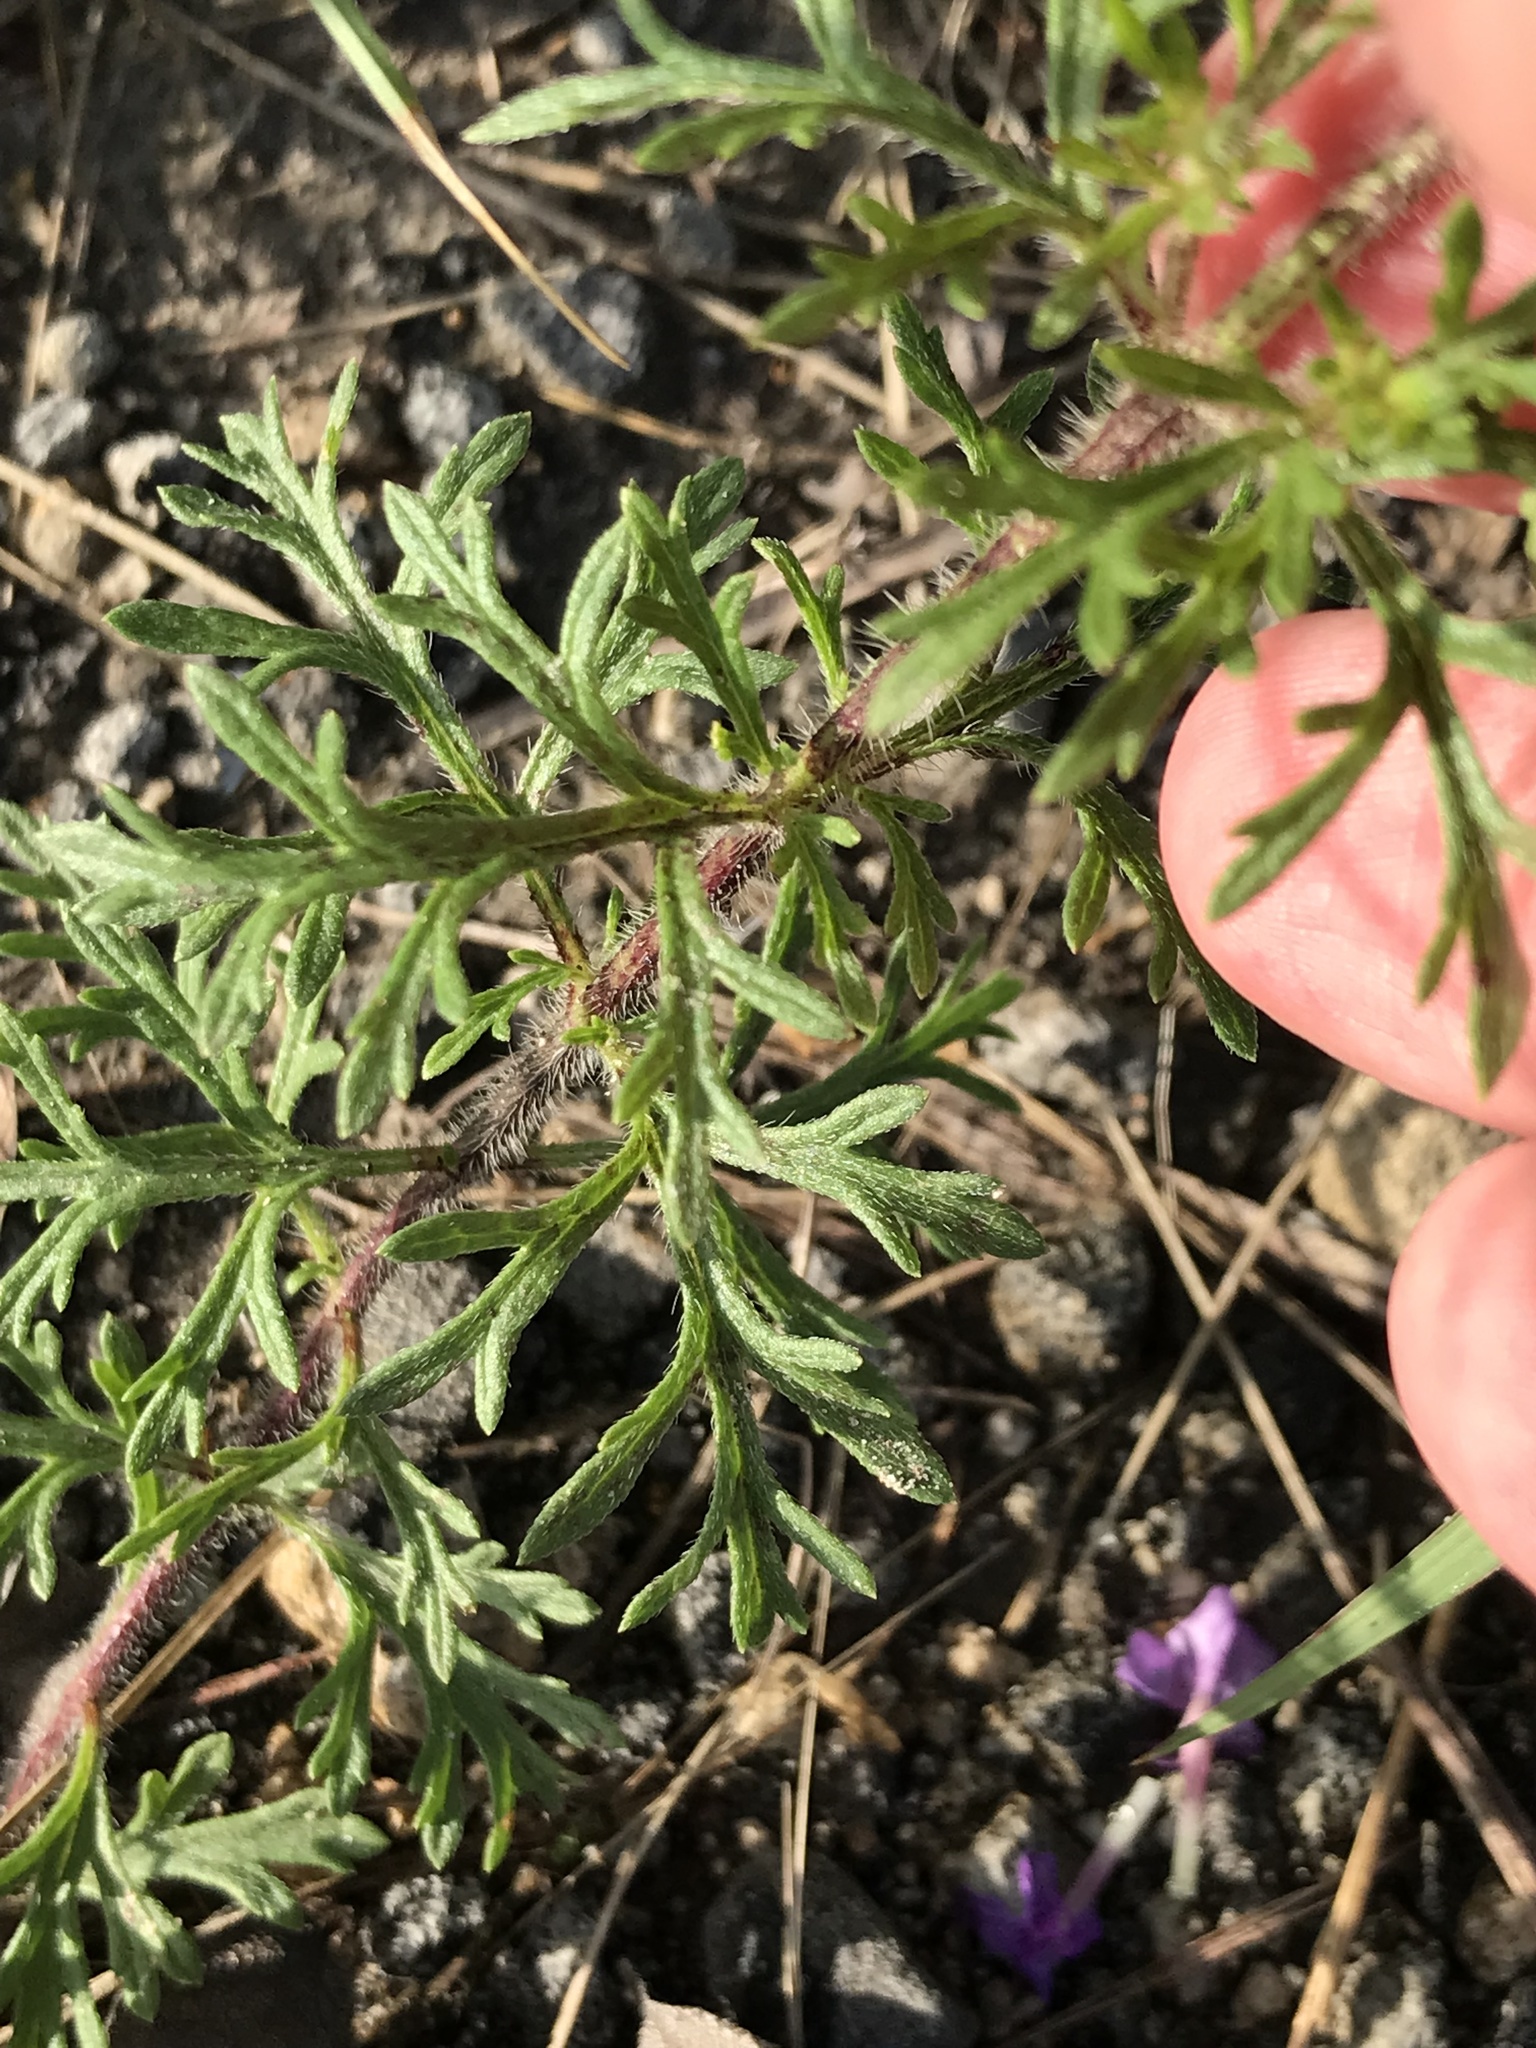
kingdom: Plantae
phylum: Tracheophyta
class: Magnoliopsida
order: Lamiales
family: Verbenaceae
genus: Verbena
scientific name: Verbena bipinnatifida
